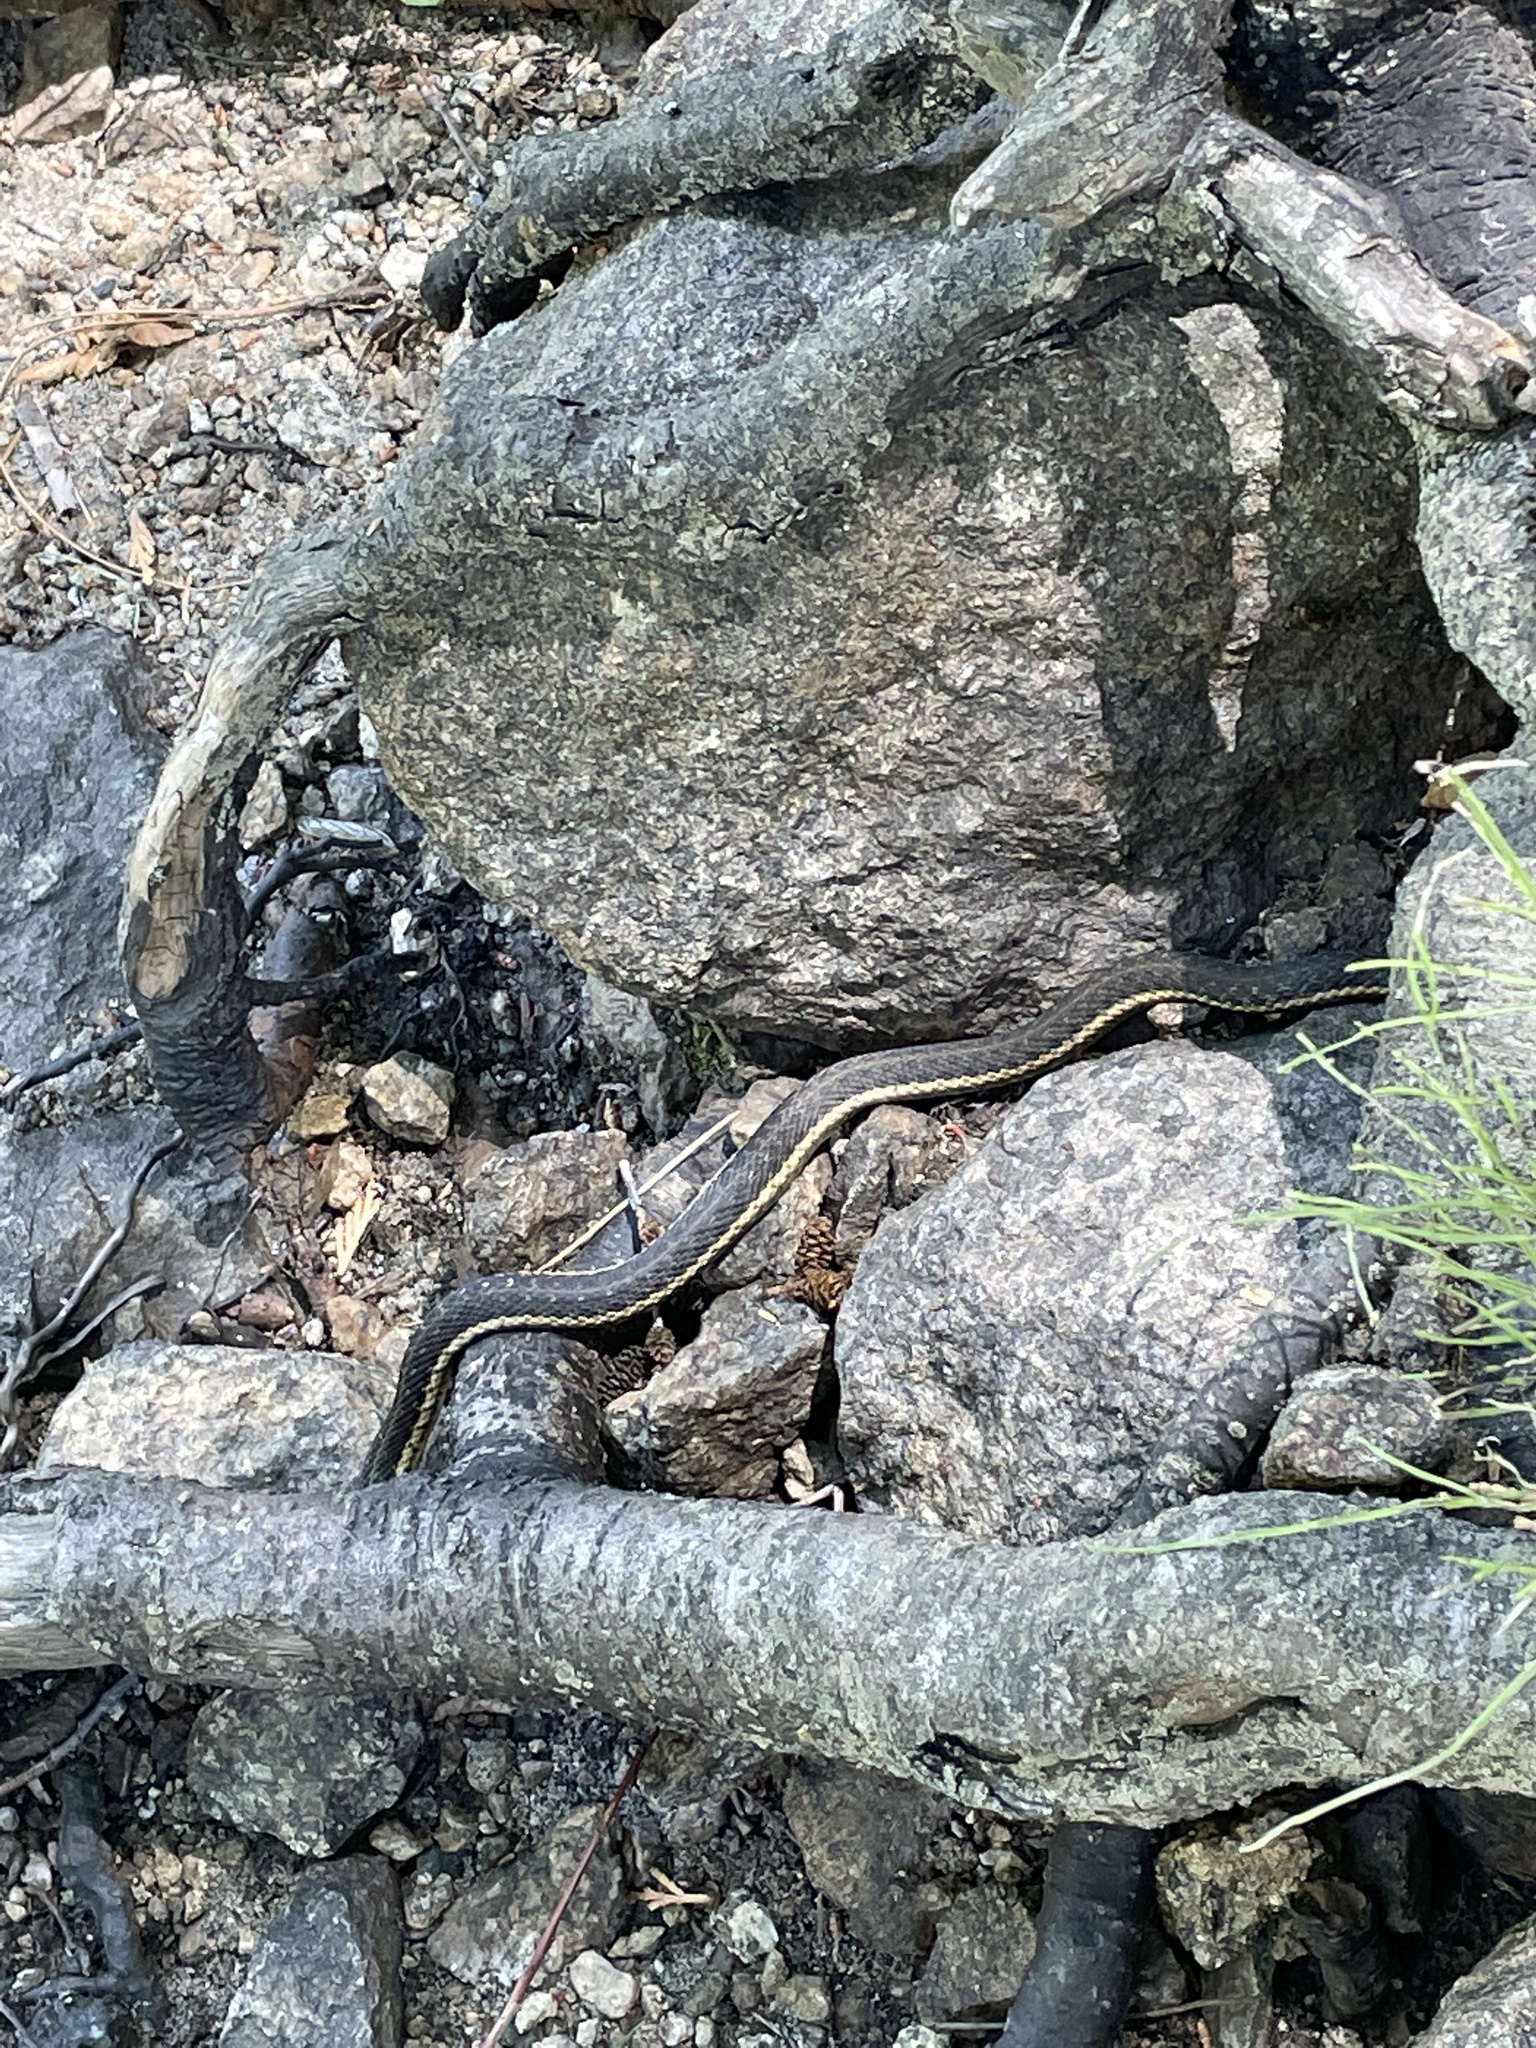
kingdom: Animalia
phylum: Chordata
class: Squamata
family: Colubridae
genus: Thamnophis
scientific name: Thamnophis couchii
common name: Western aquatic garter snake
